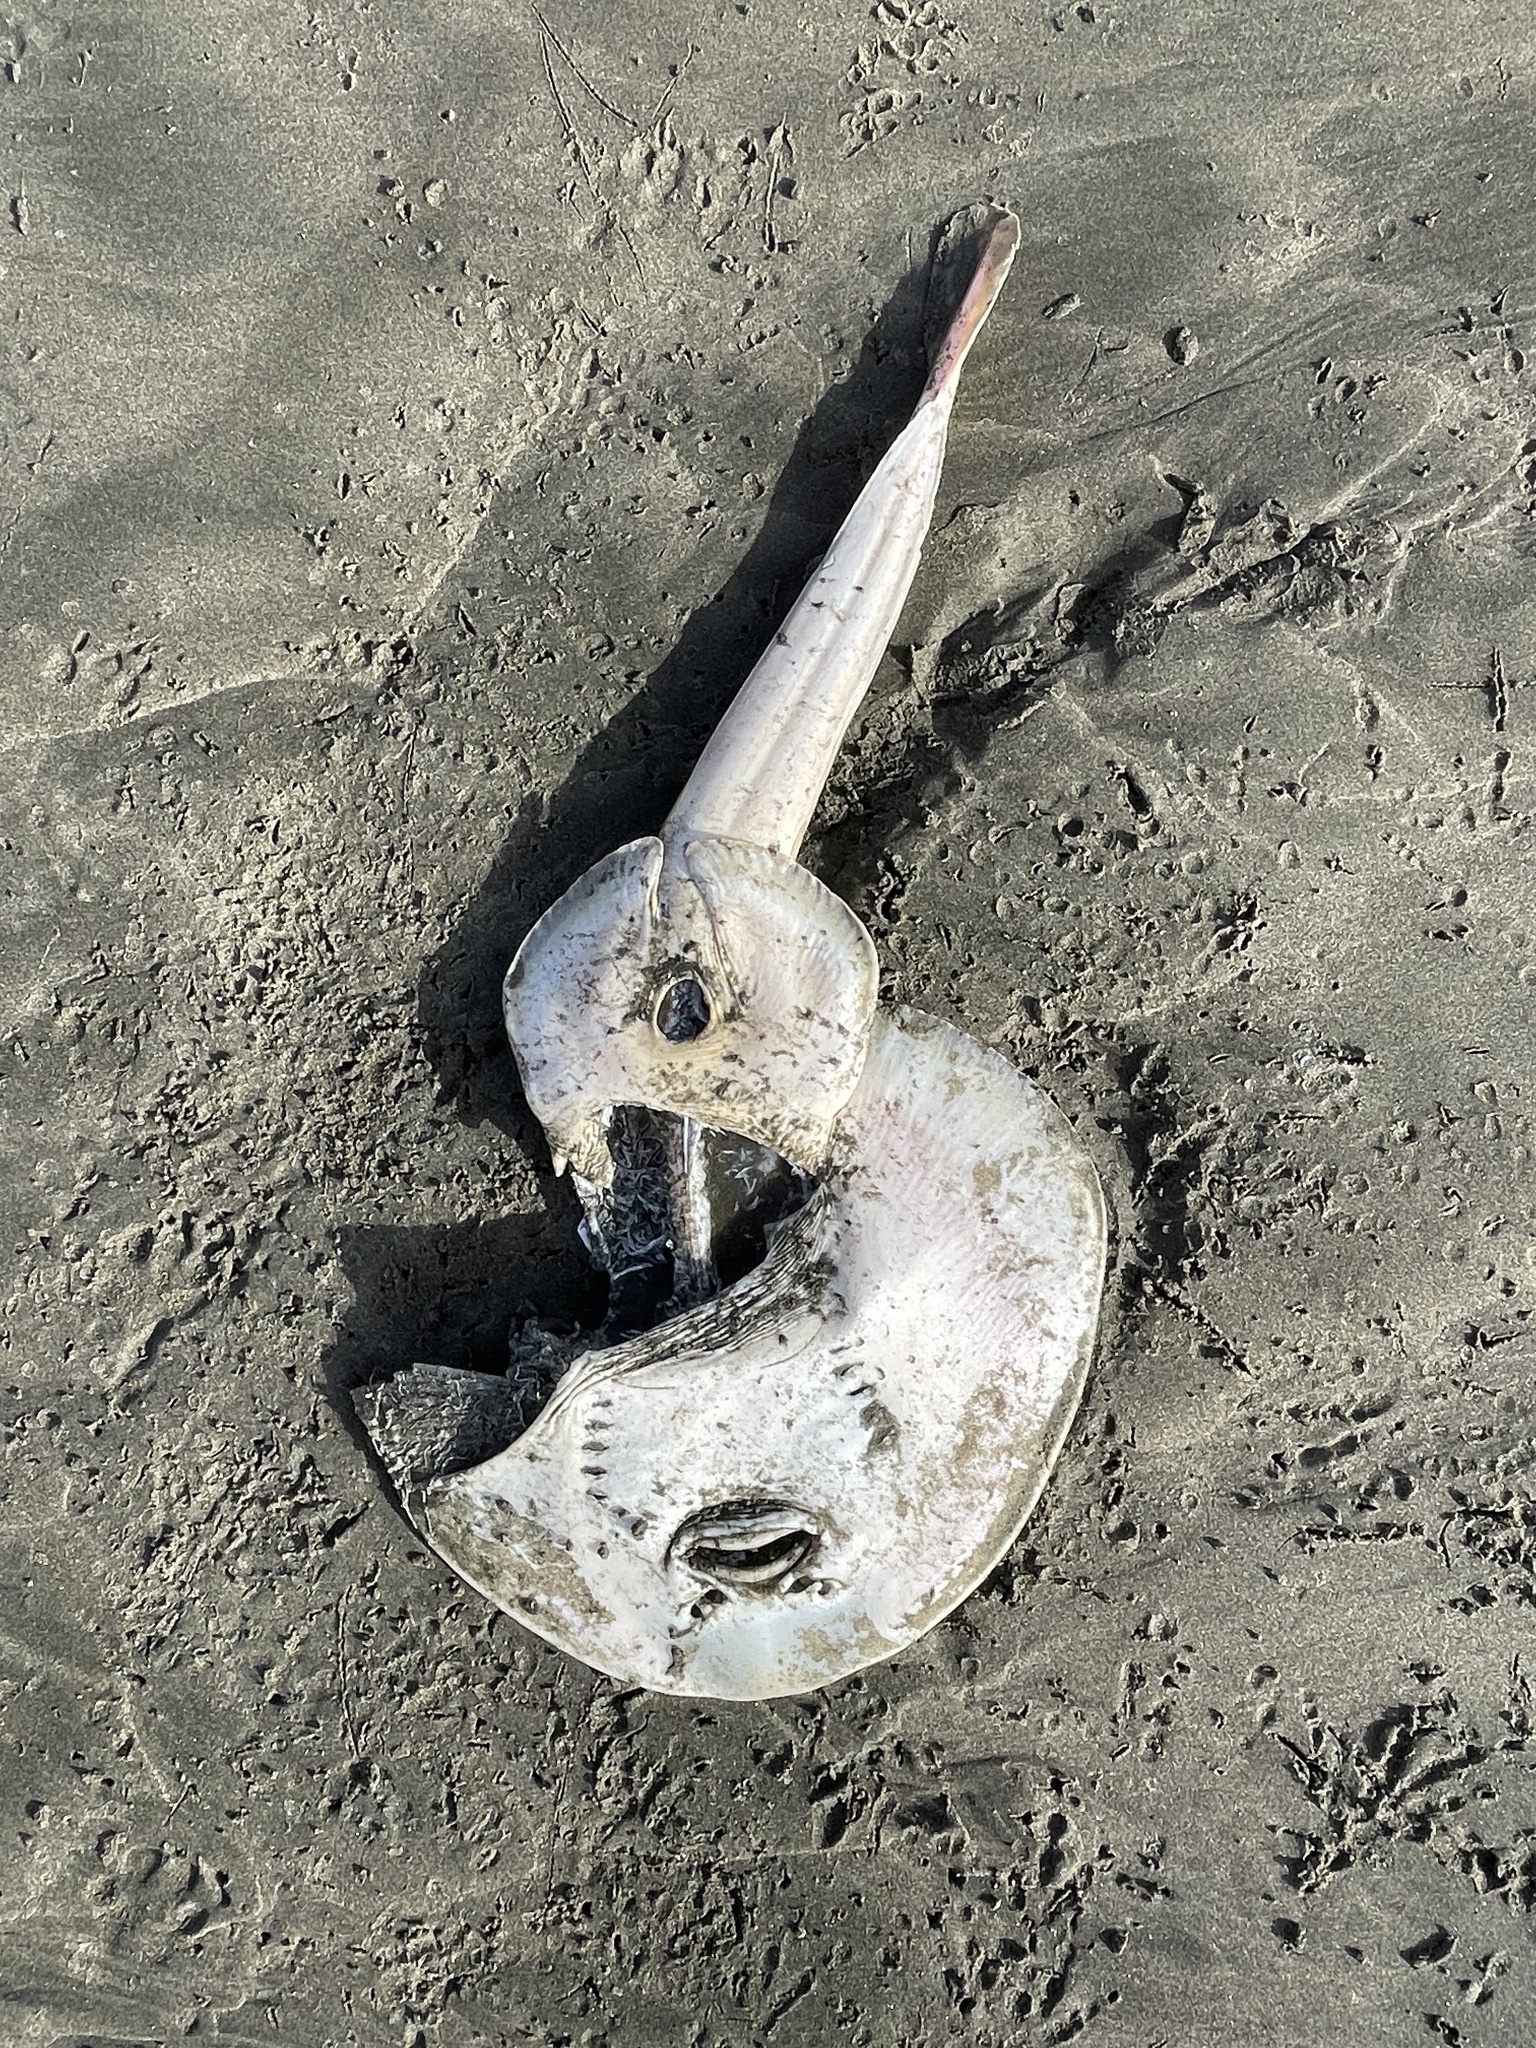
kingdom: Animalia
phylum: Chordata
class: Elasmobranchii
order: Rhinopristiformes
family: Rhinobatidae
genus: Platyrhinoidis
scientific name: Platyrhinoidis triseriata
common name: Thornback
